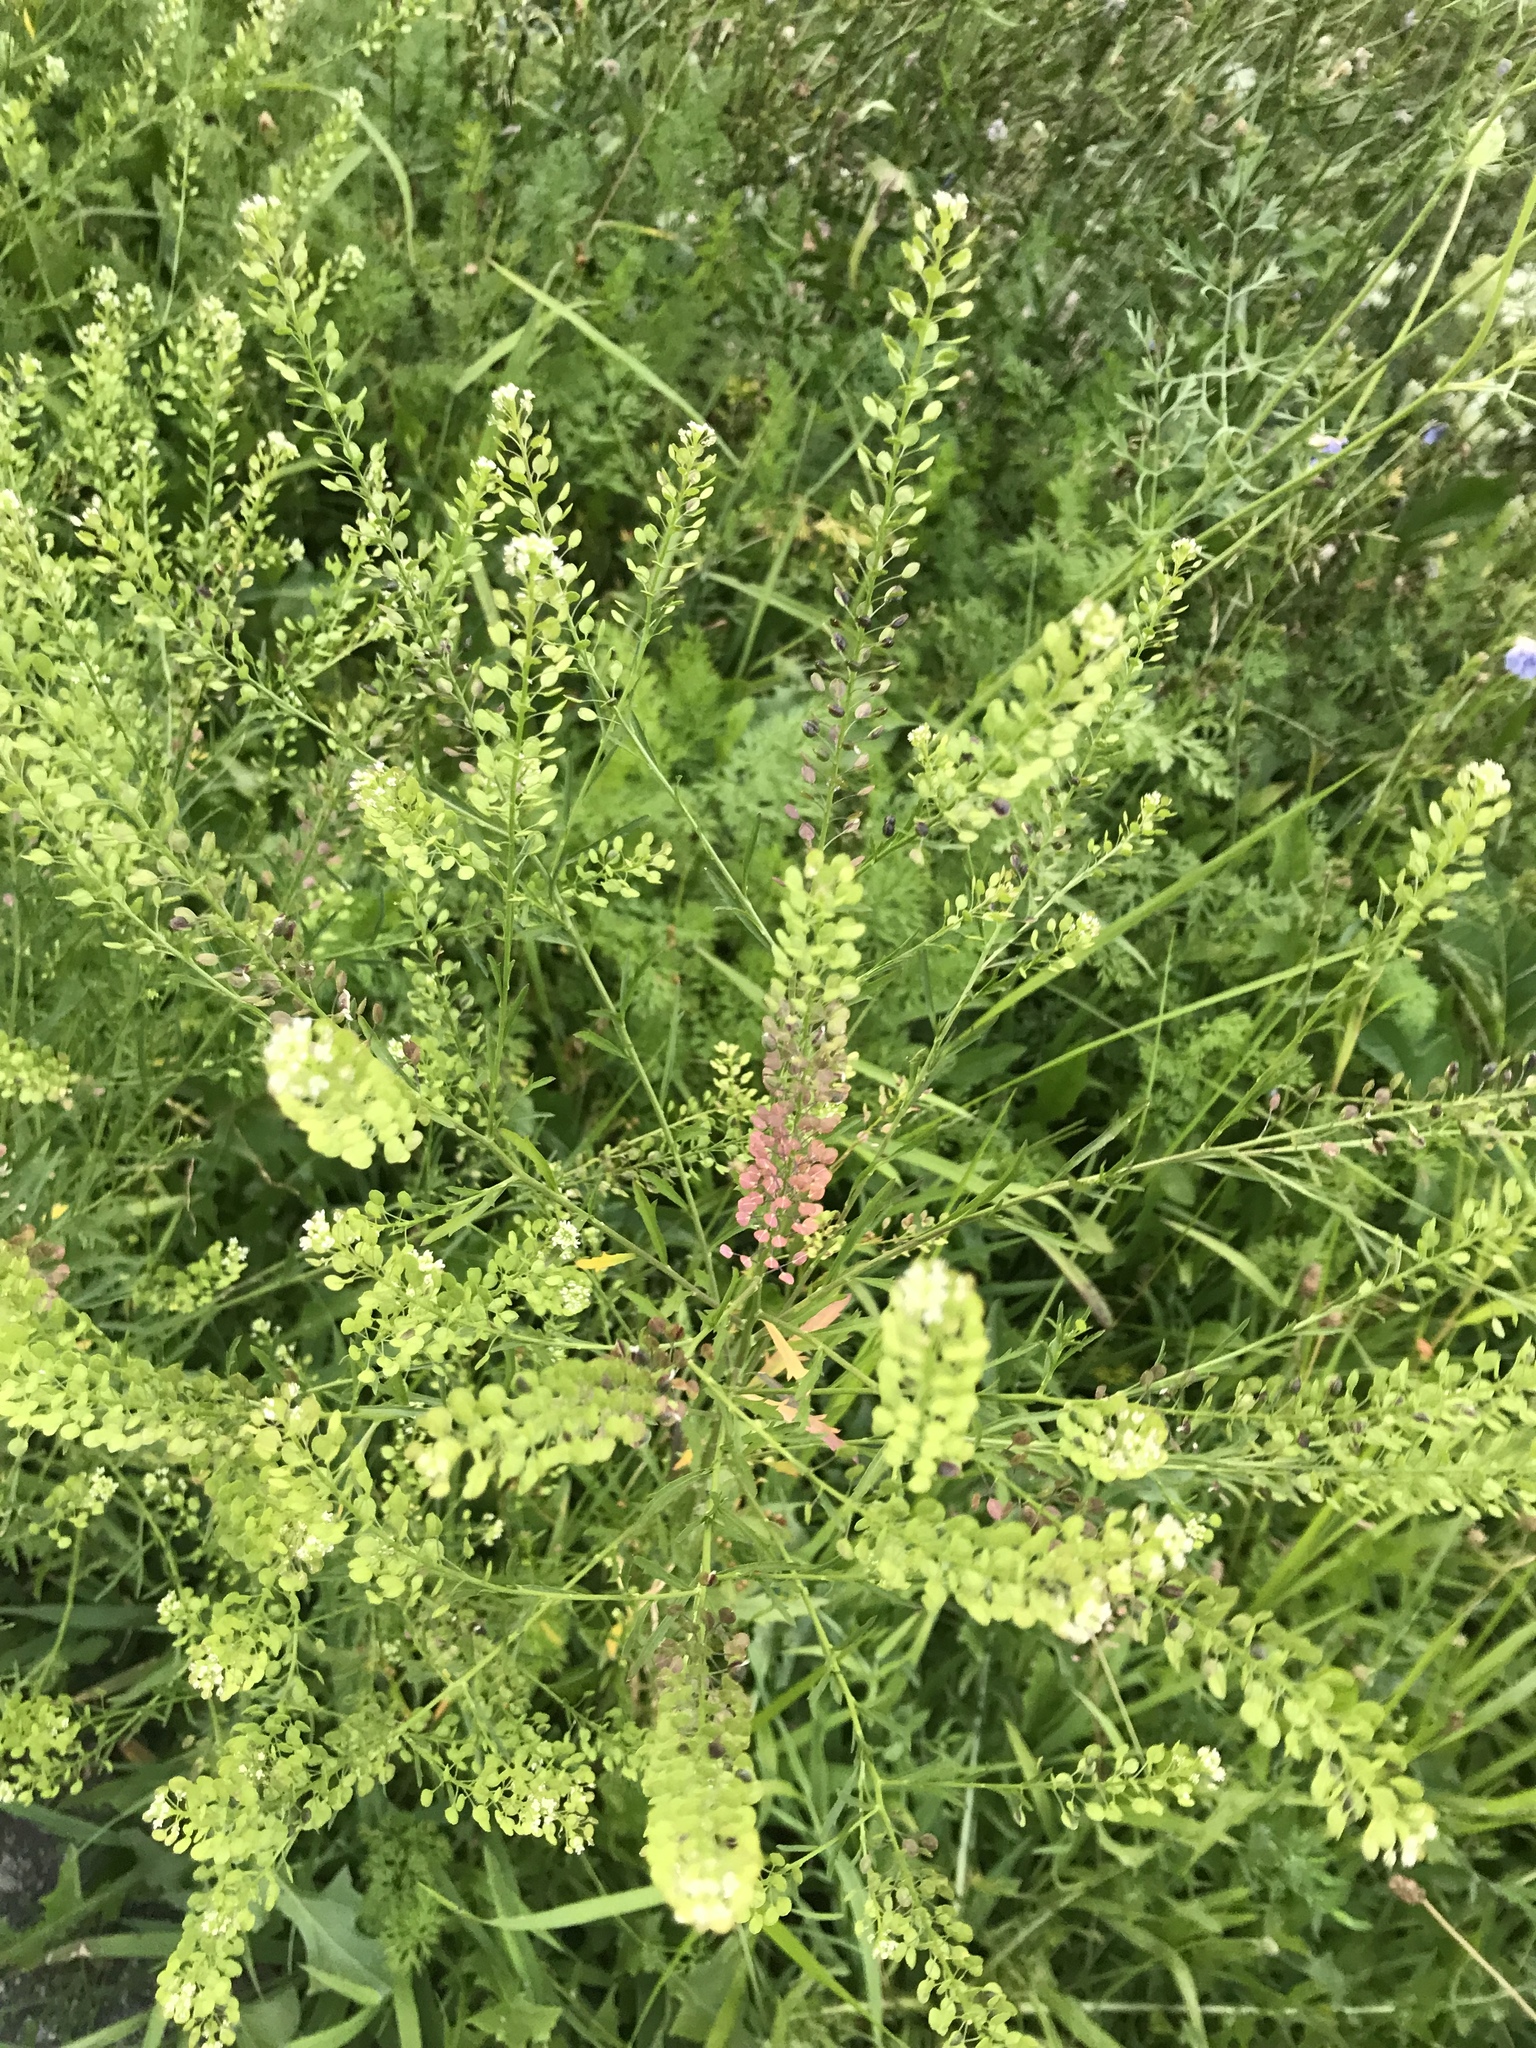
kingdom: Plantae
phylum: Tracheophyta
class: Magnoliopsida
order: Brassicales
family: Brassicaceae
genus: Lepidium
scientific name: Lepidium virginicum
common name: Least pepperwort
